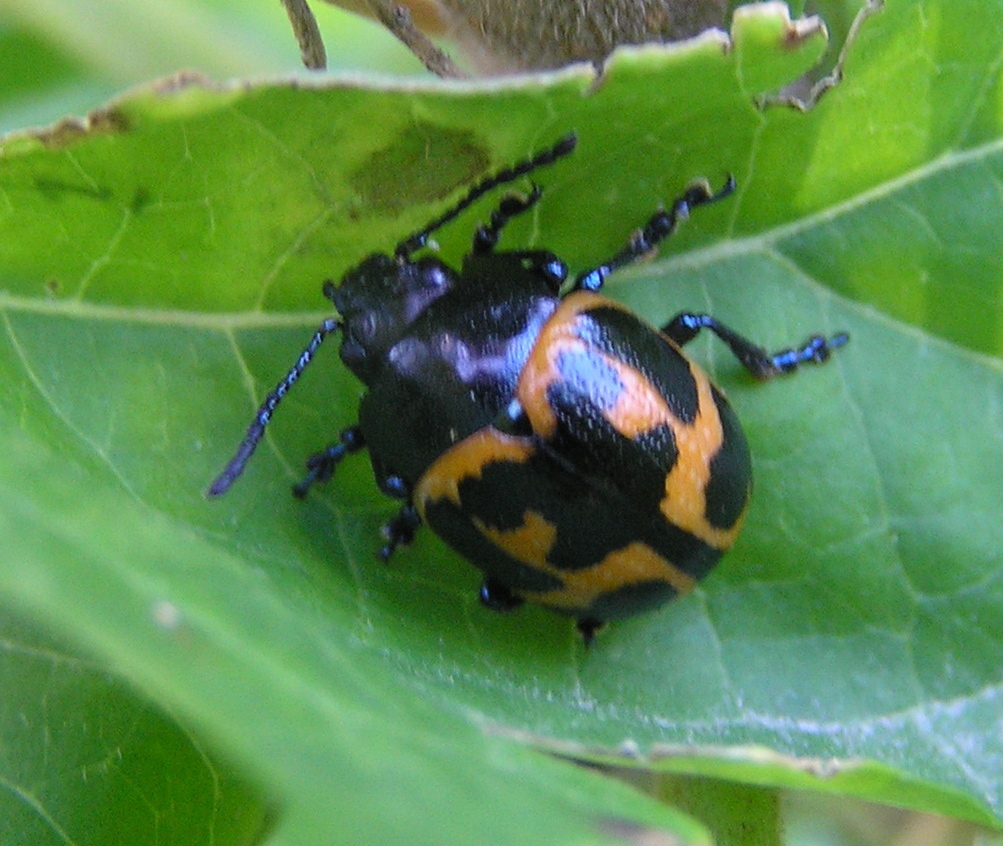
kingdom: Animalia
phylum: Arthropoda
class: Insecta
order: Coleoptera
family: Chrysomelidae
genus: Labidomera
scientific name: Labidomera clivicollis
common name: Swamp milkweed leaf beetle
